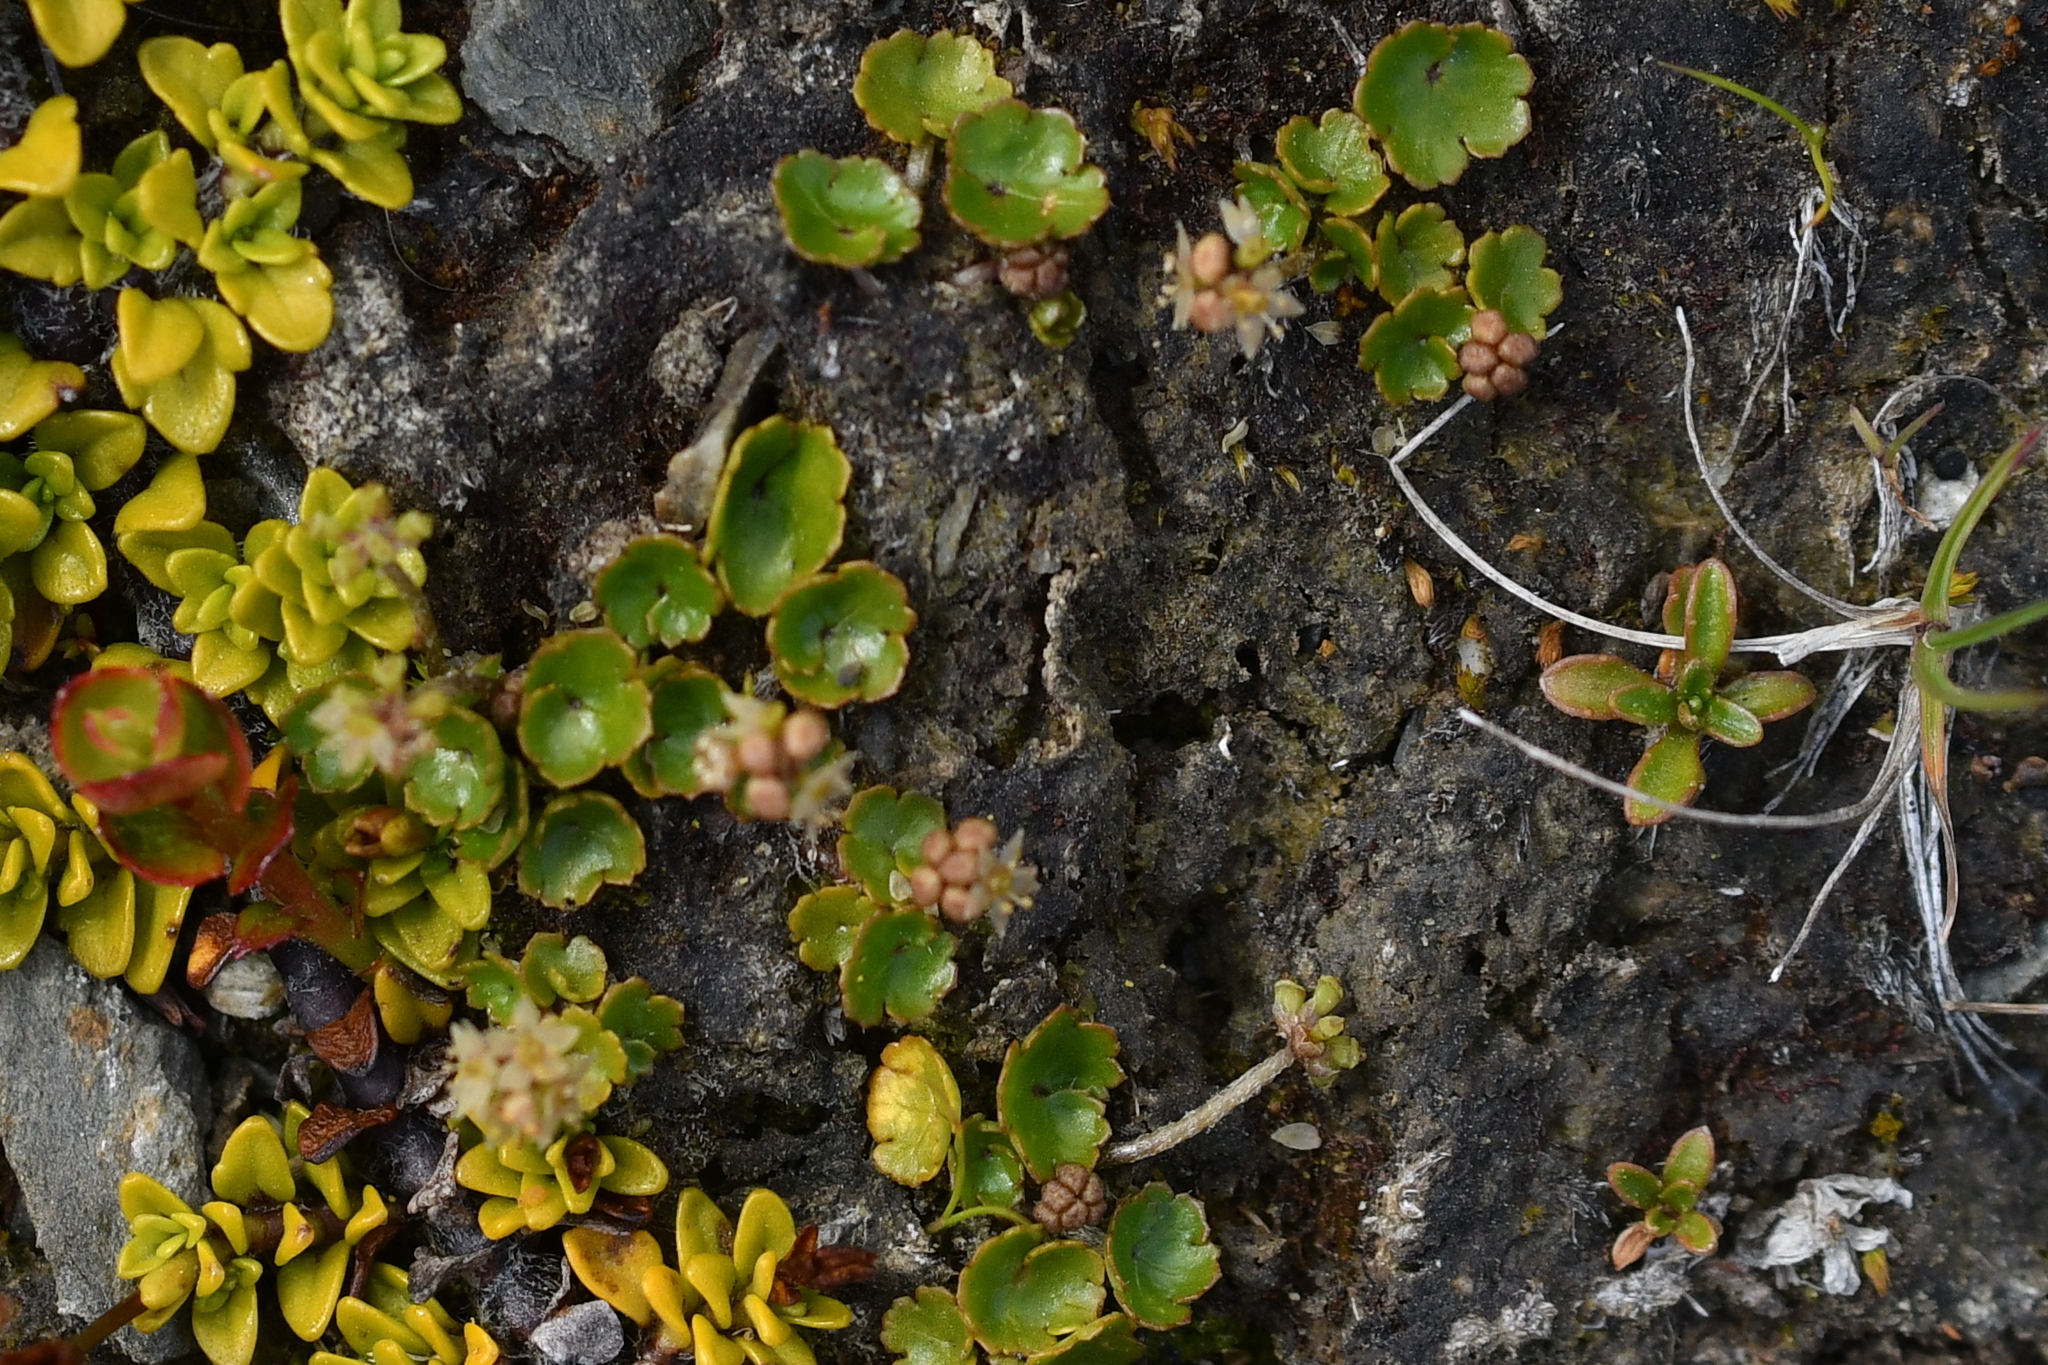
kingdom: Plantae
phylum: Tracheophyta
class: Magnoliopsida
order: Apiales
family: Araliaceae
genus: Hydrocotyle
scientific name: Hydrocotyle novae-zeelandiae
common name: New zealand pennywort
